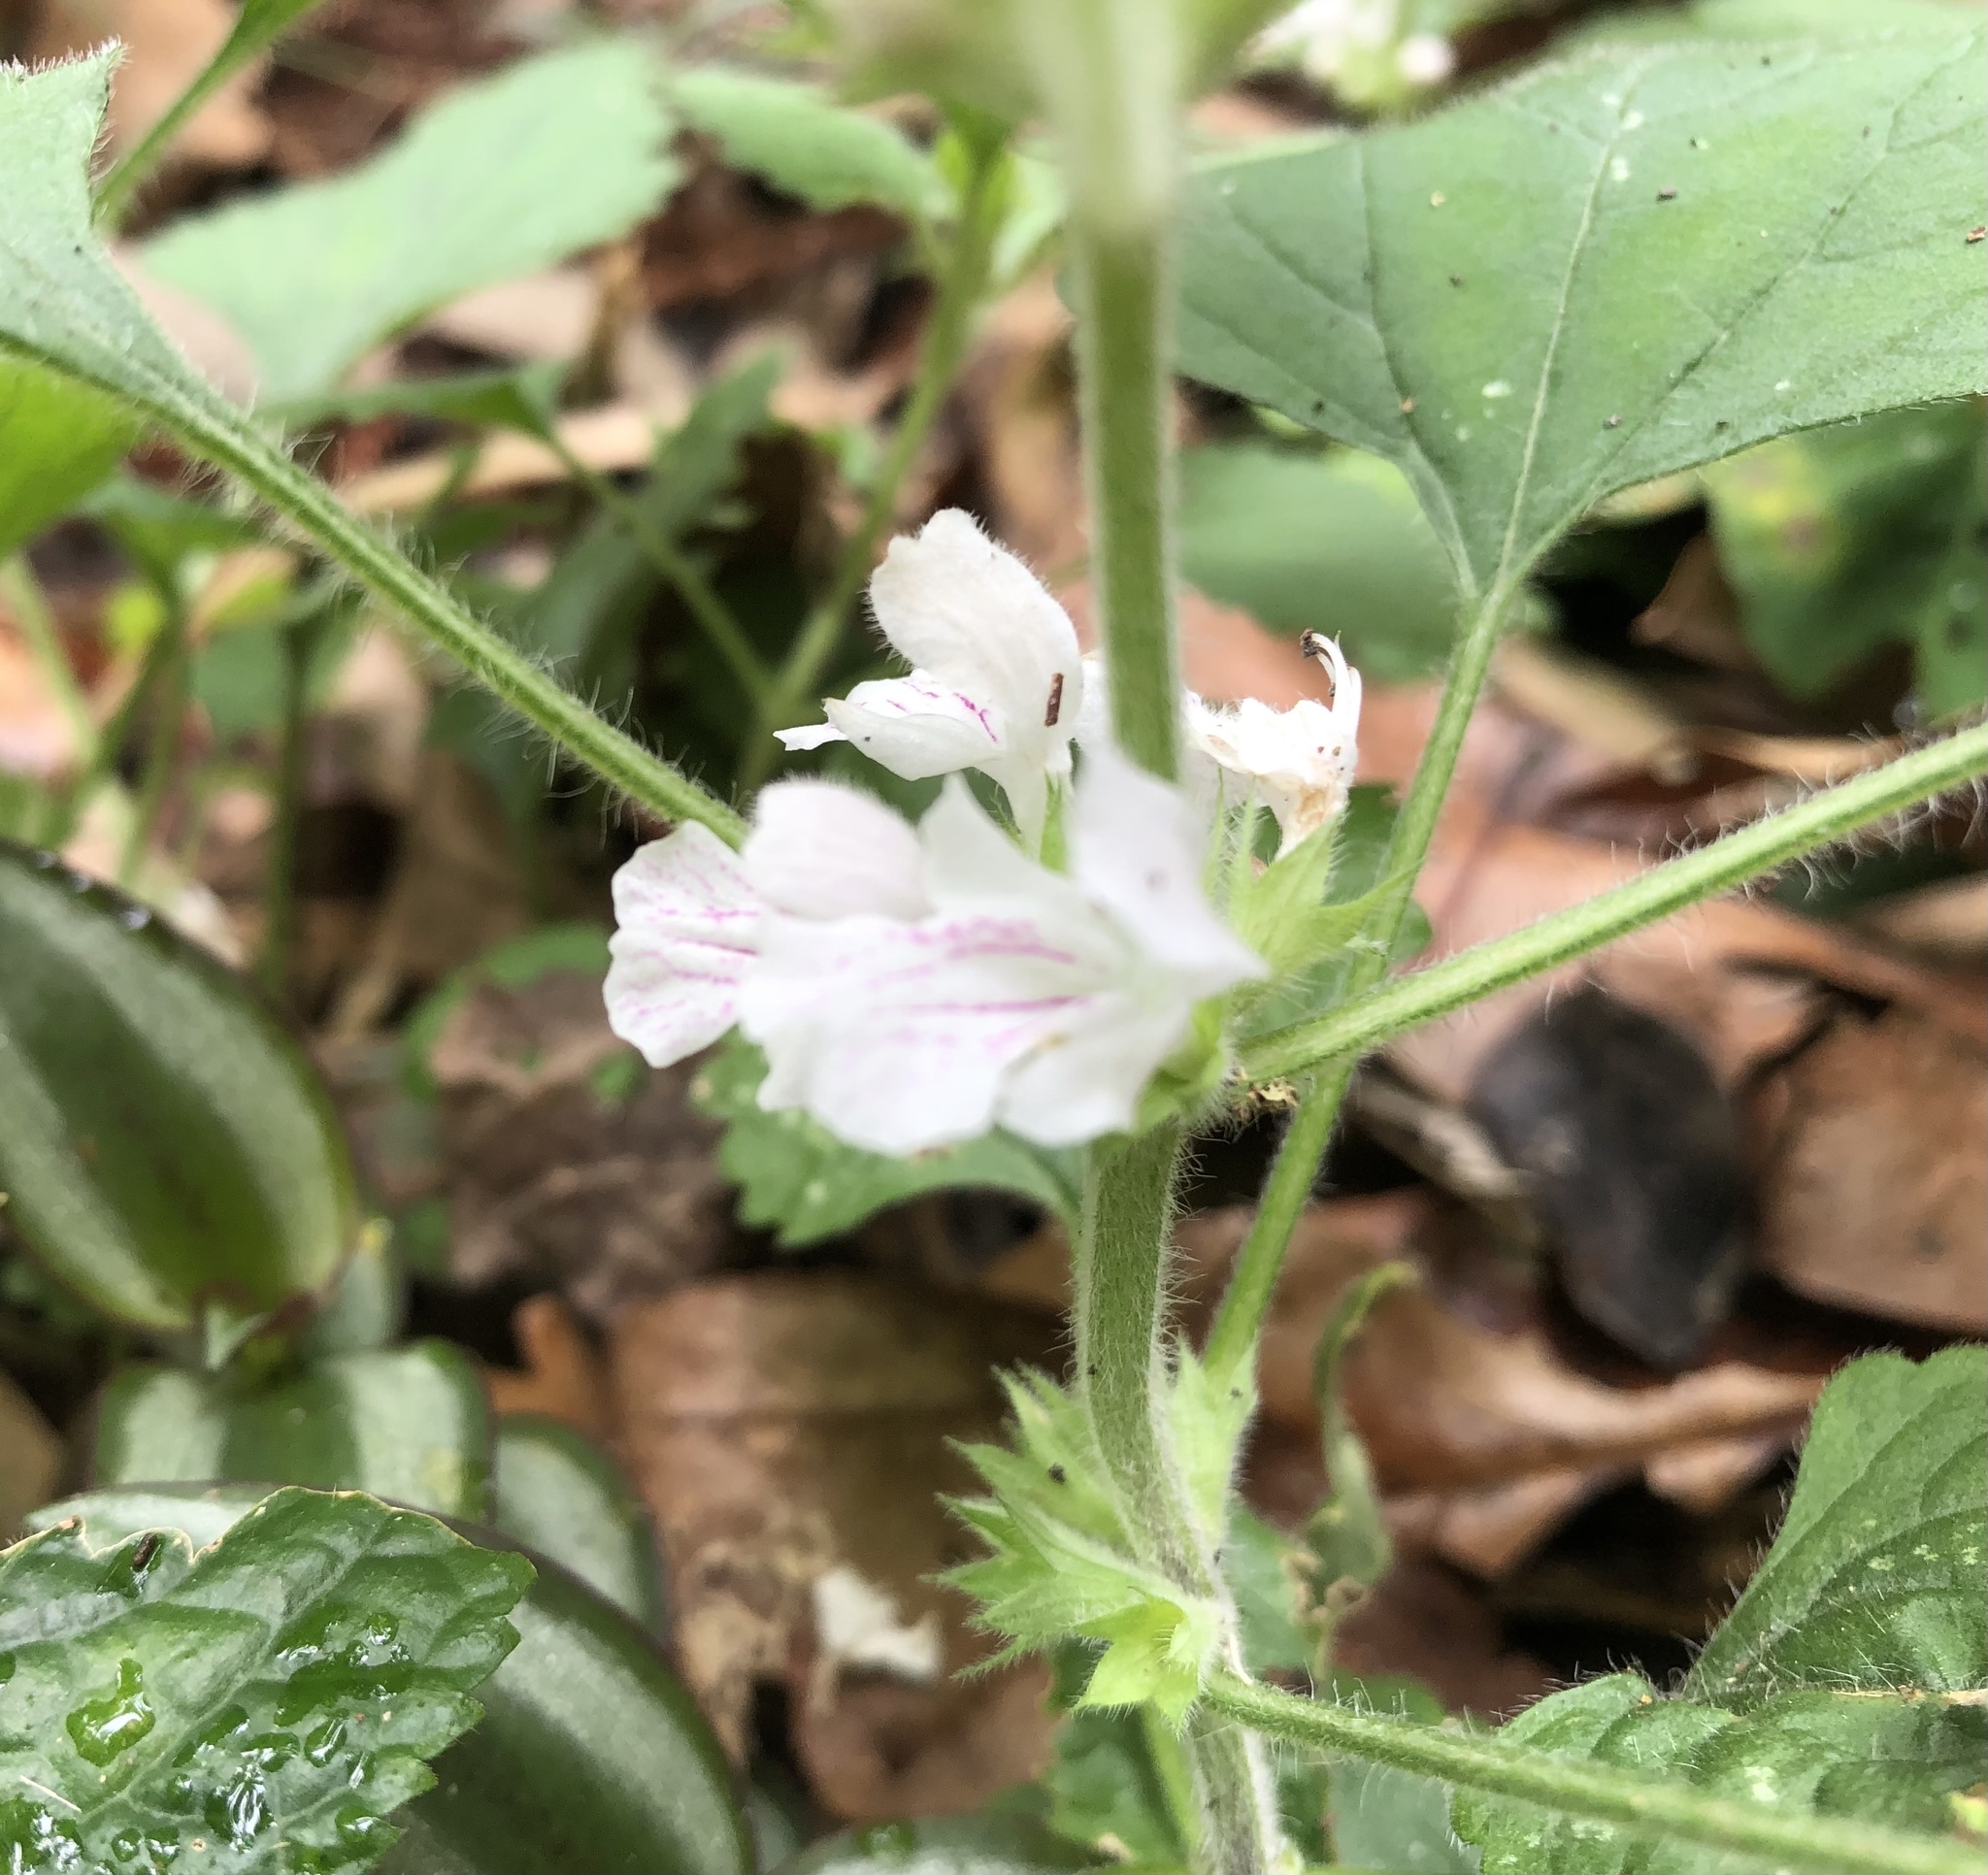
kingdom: Plantae
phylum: Tracheophyta
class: Magnoliopsida
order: Lamiales
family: Lamiaceae
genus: Matsumurella
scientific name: Matsumurella tuberifera
